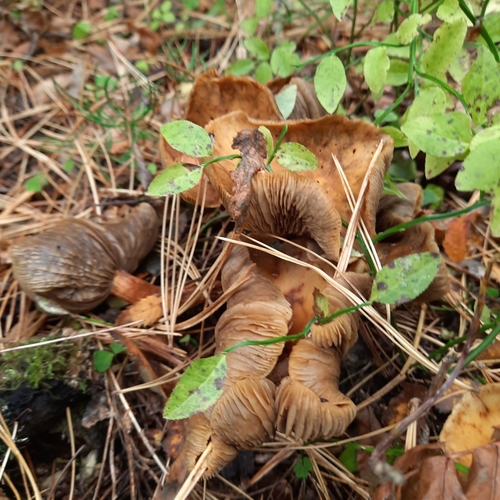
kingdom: Fungi
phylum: Basidiomycota
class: Agaricomycetes
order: Agaricales
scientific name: Agaricales
